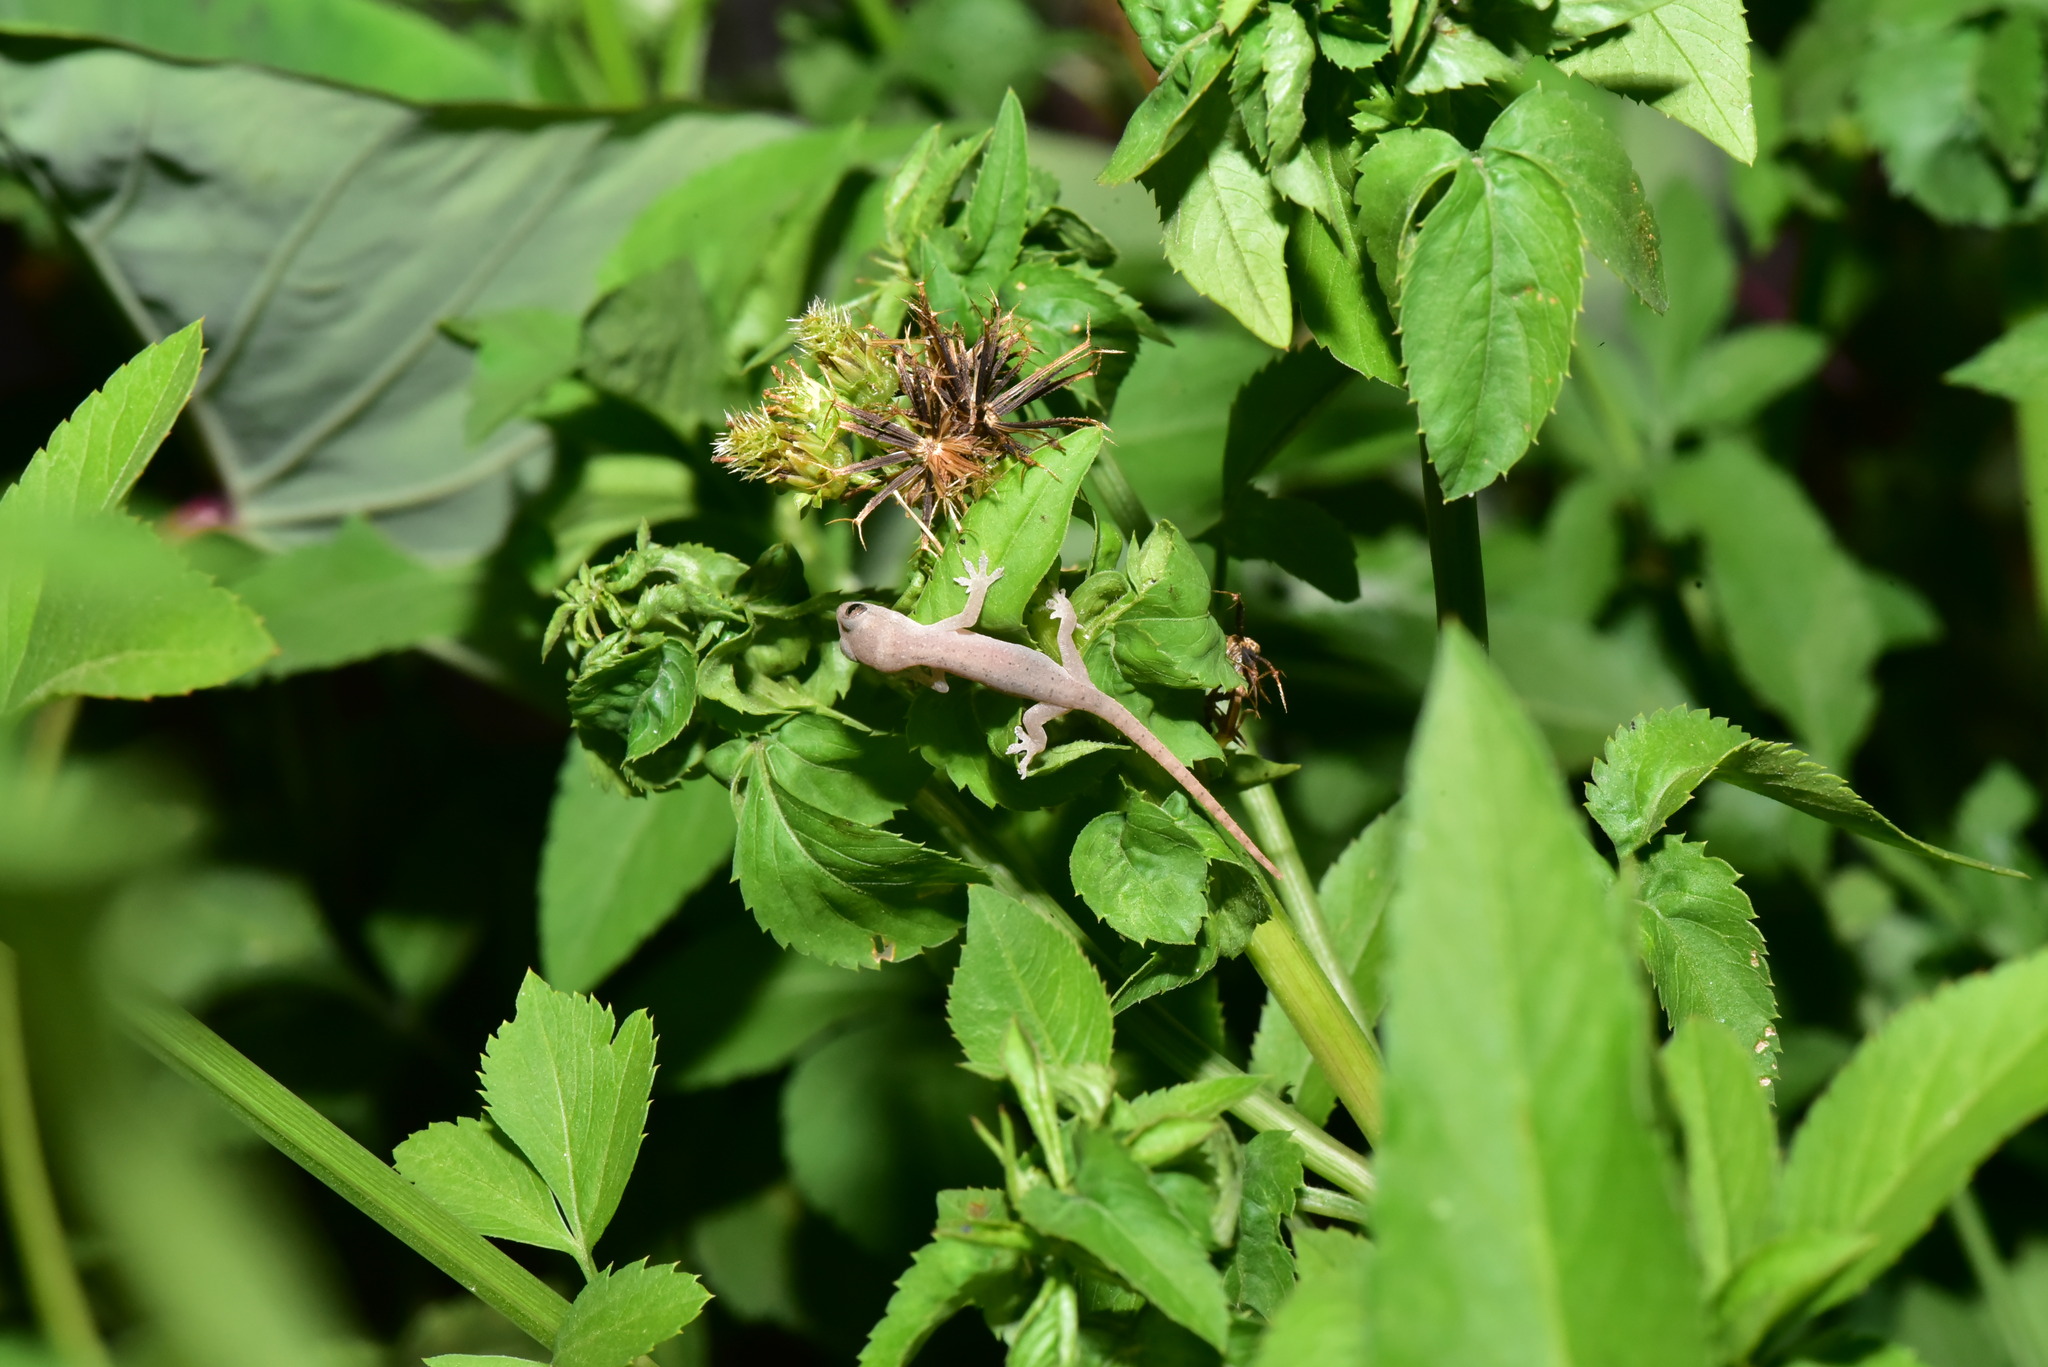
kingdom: Animalia
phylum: Chordata
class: Squamata
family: Gekkonidae
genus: Hemidactylus
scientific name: Hemidactylus frenatus
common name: Common house gecko
